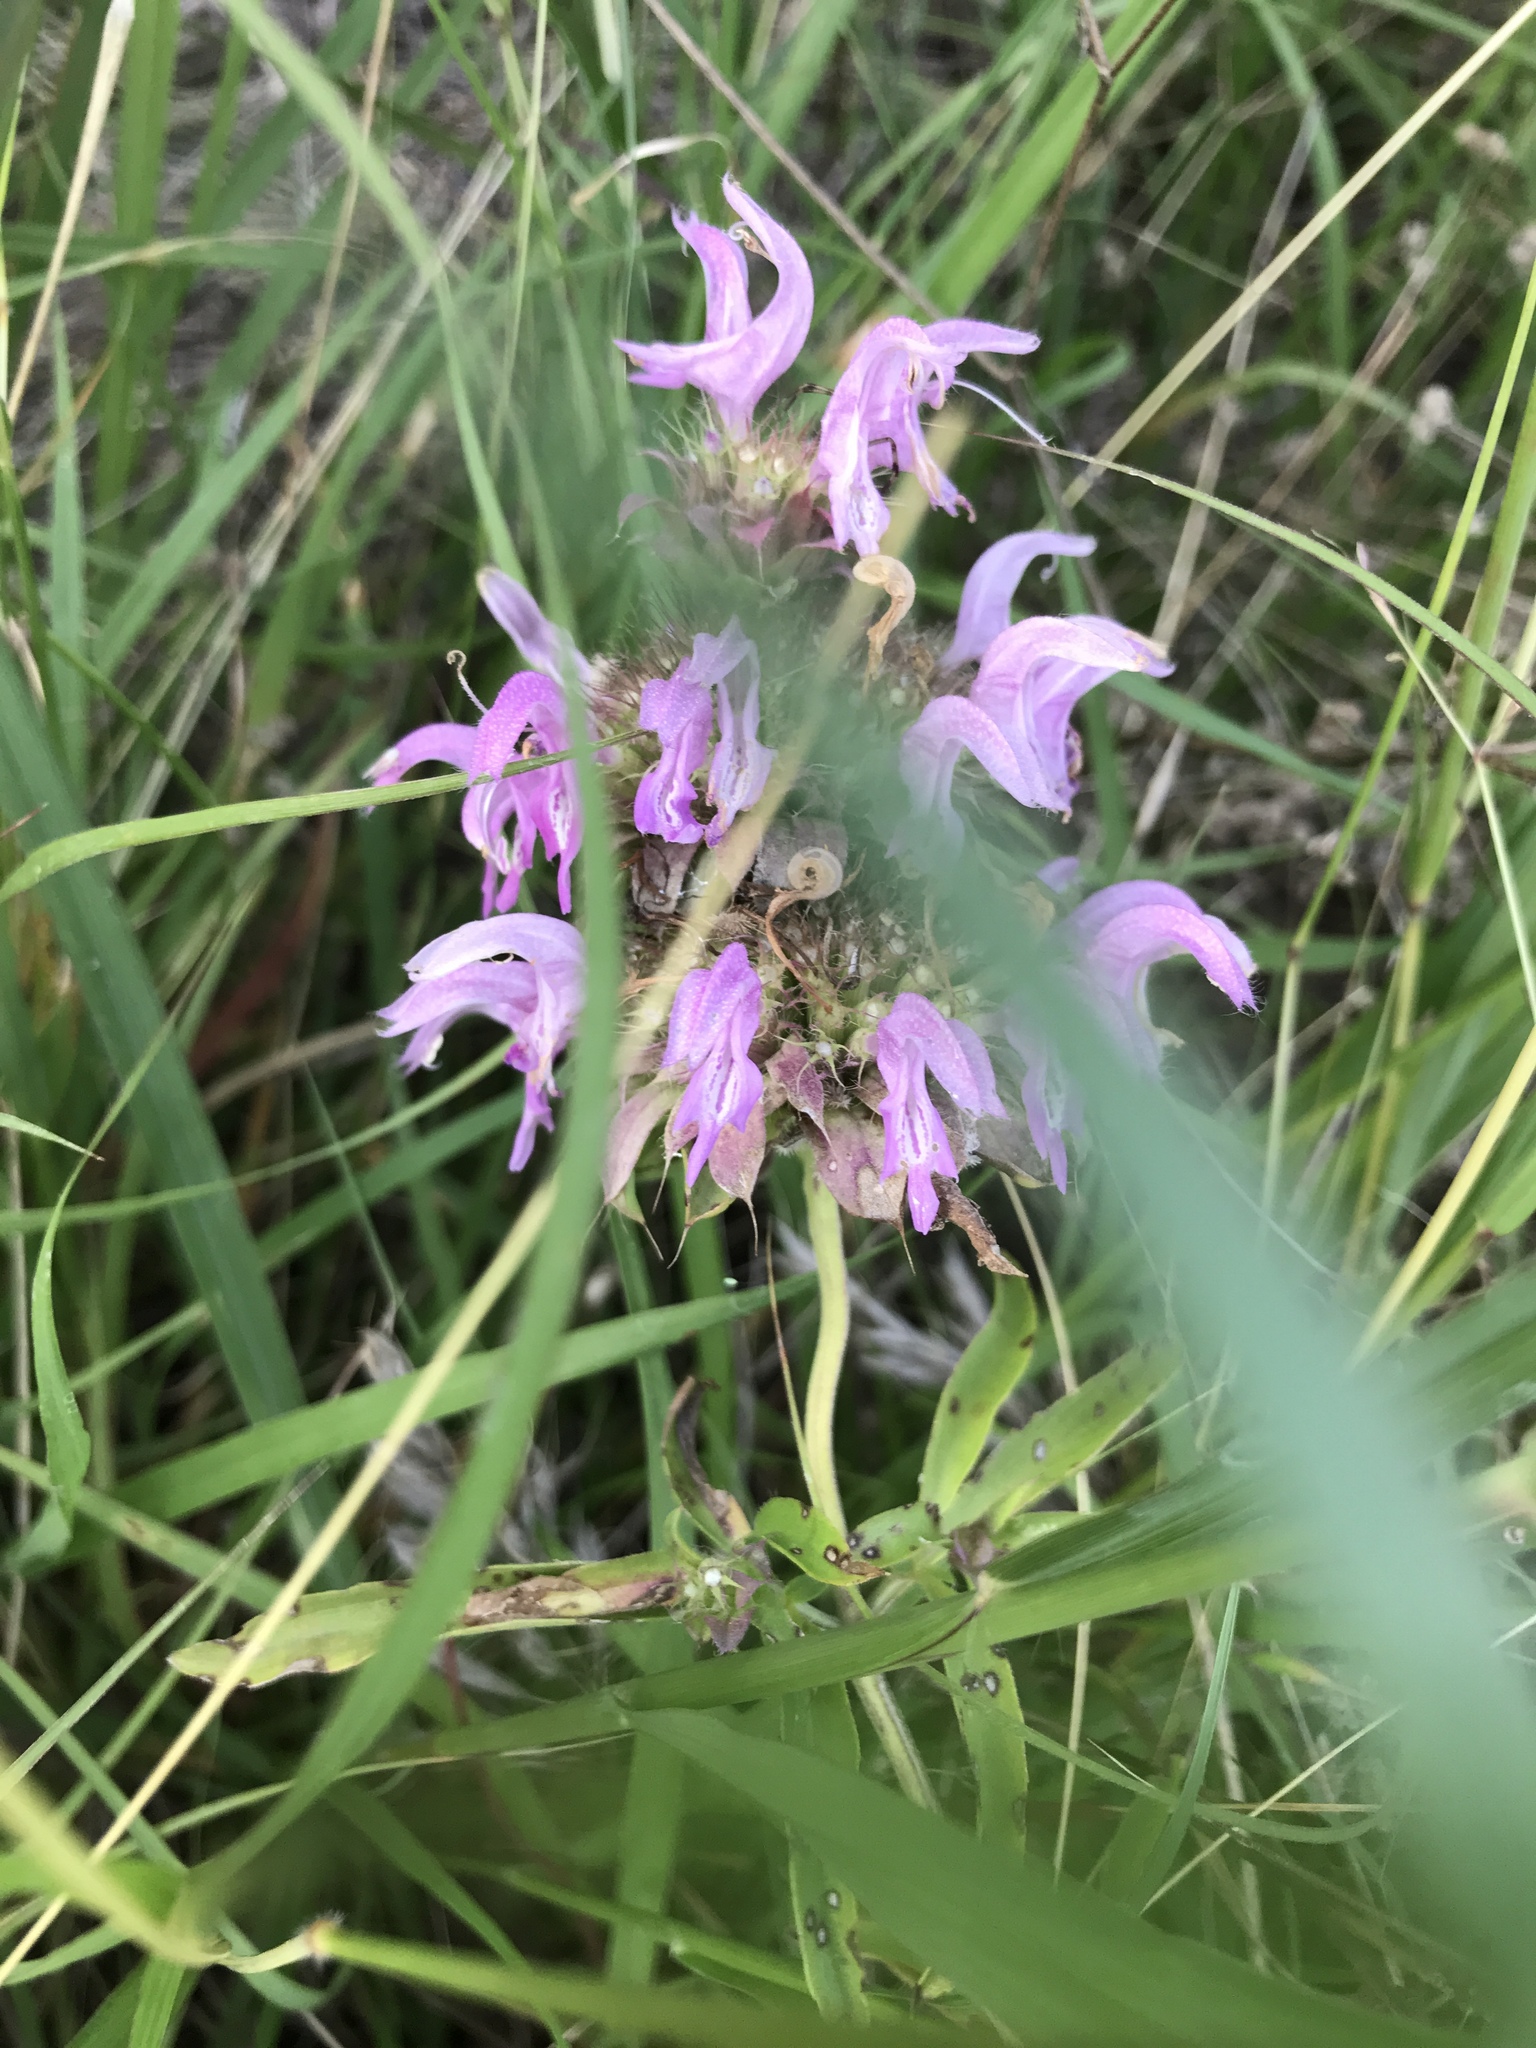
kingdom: Plantae
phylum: Tracheophyta
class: Magnoliopsida
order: Lamiales
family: Lamiaceae
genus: Monarda
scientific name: Monarda citriodora
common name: Lemon beebalm
